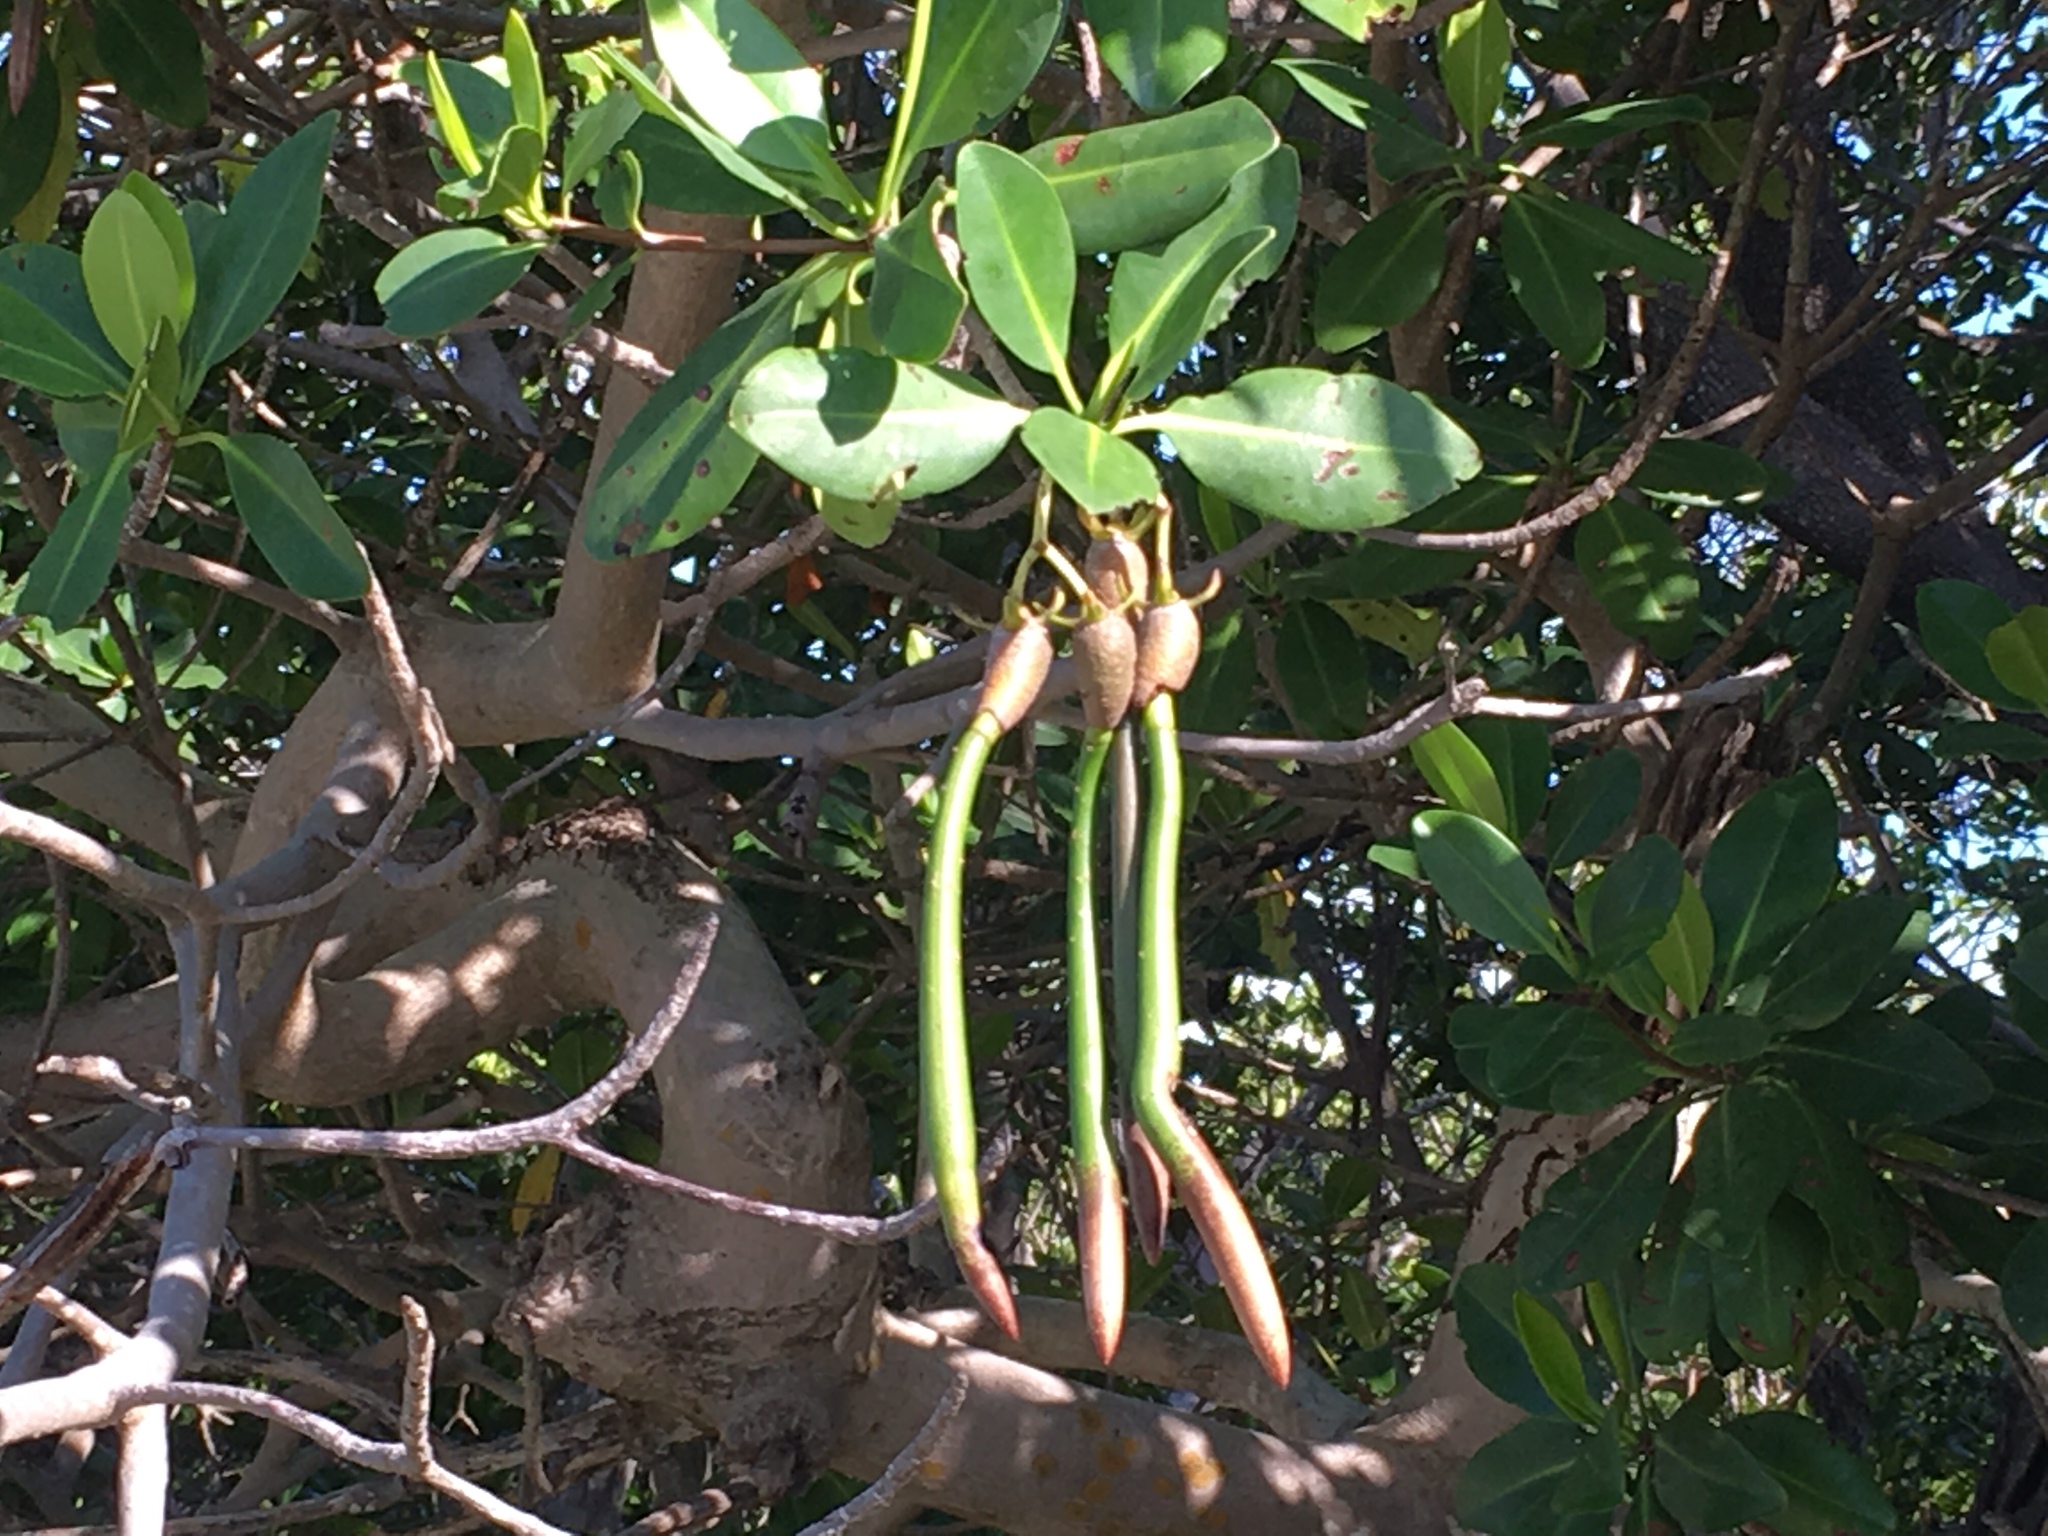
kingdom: Plantae
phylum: Tracheophyta
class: Magnoliopsida
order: Malpighiales
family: Rhizophoraceae
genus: Rhizophora
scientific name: Rhizophora mangle
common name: Red mangrove
